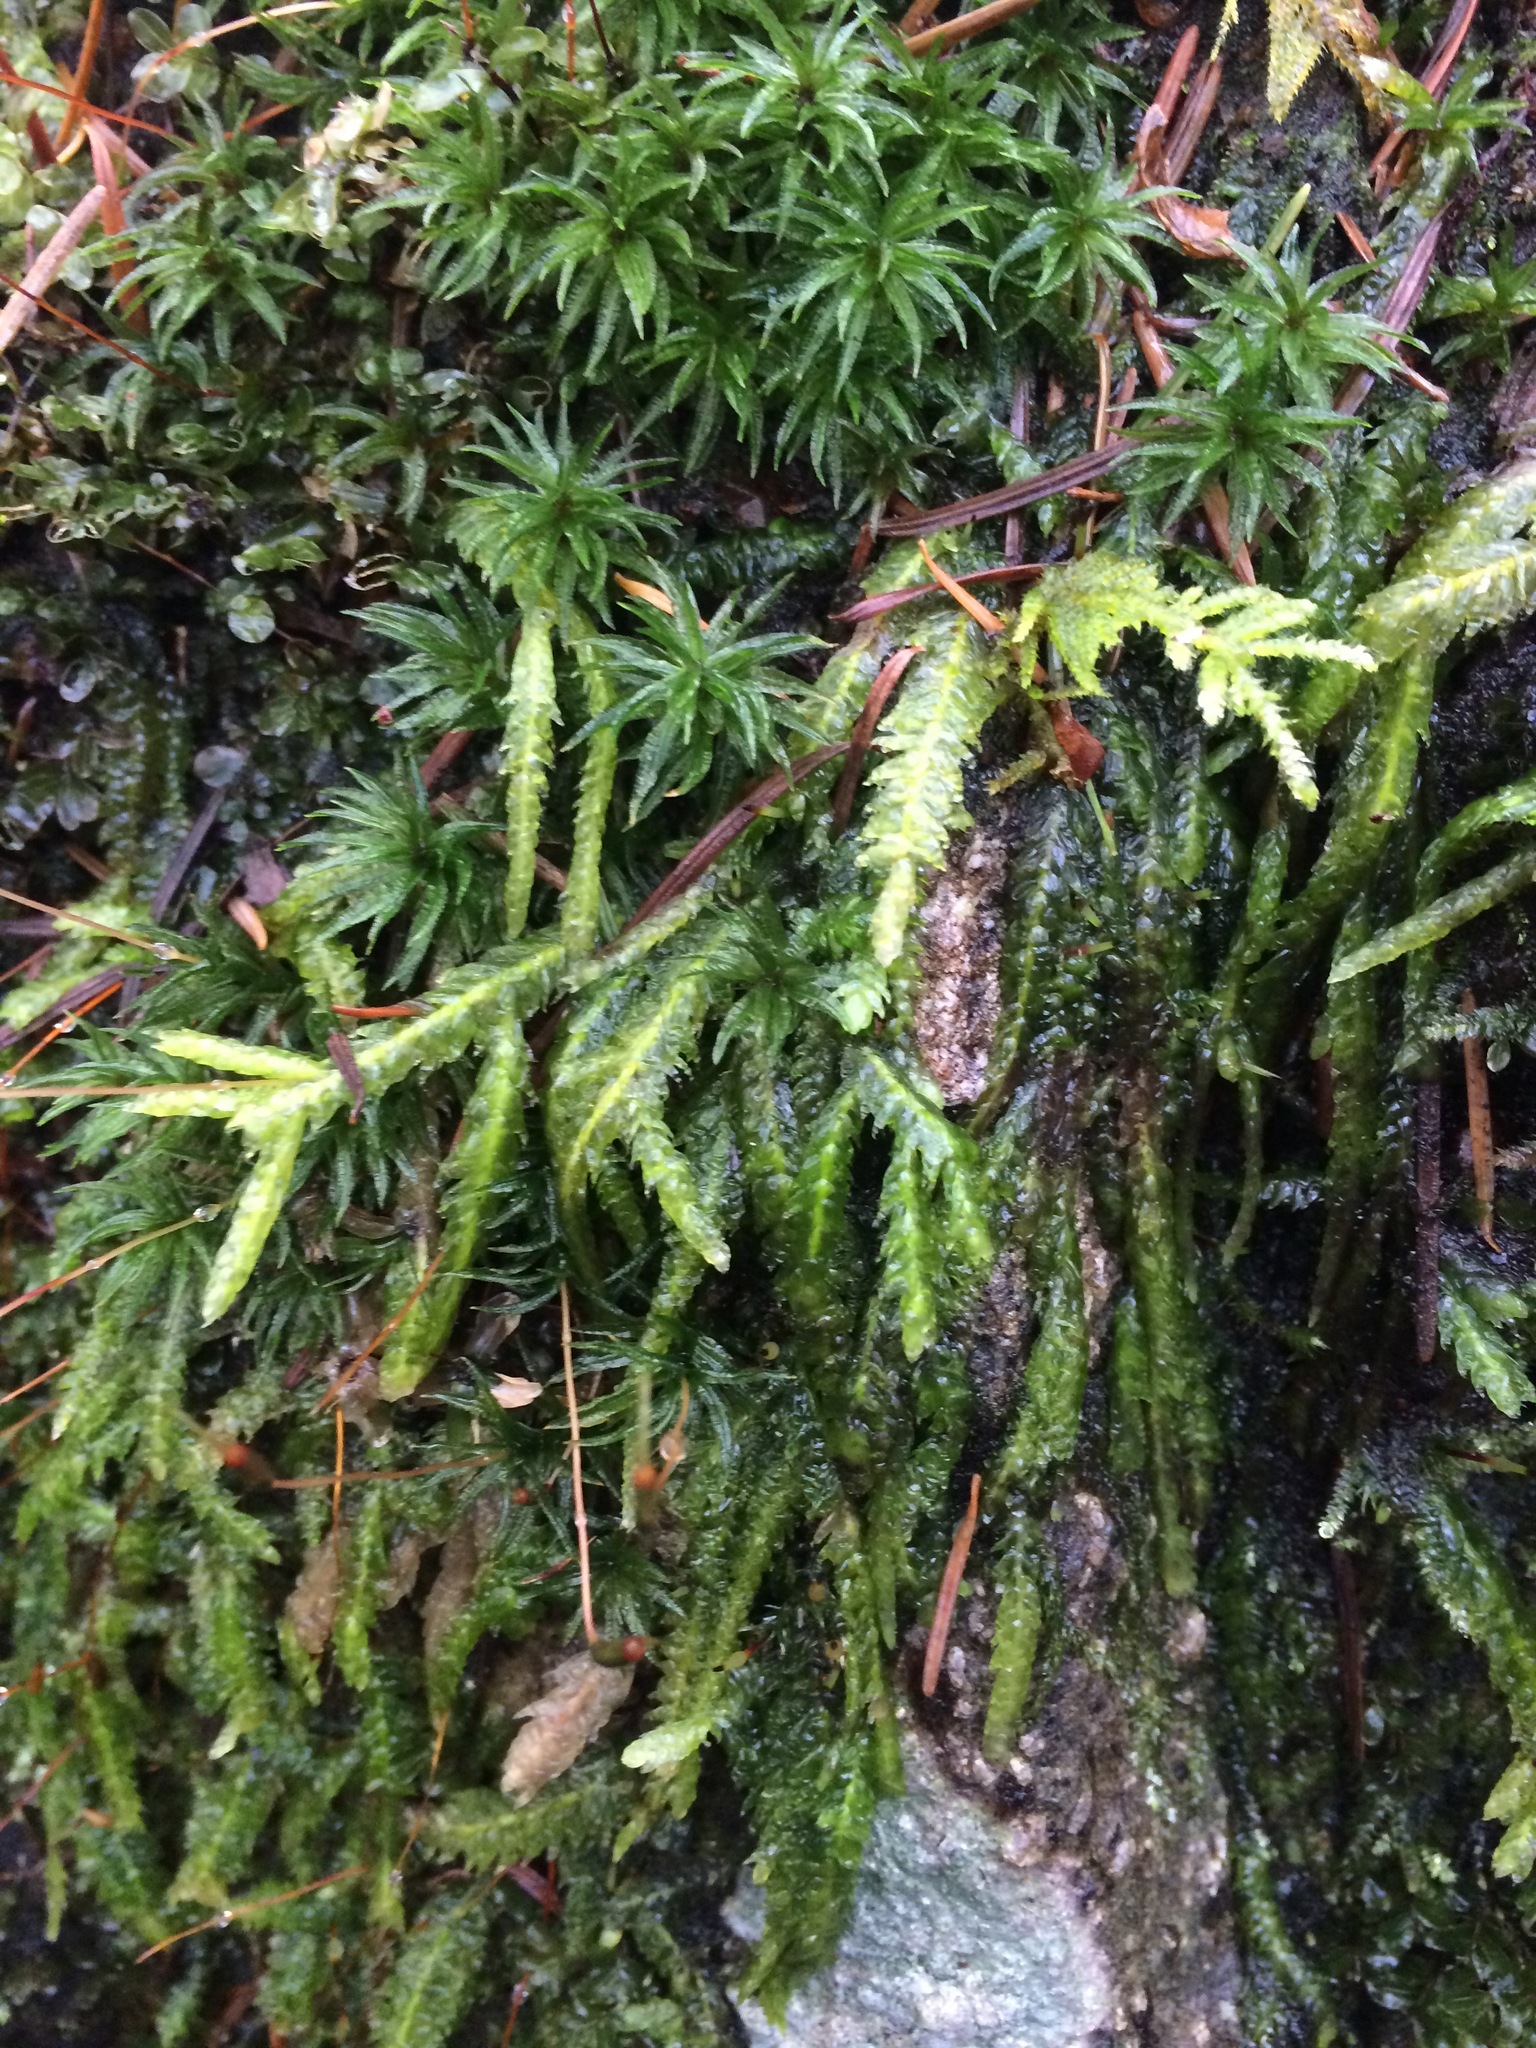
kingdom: Plantae
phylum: Bryophyta
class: Bryopsida
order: Hypnales
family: Plagiotheciaceae
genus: Plagiothecium
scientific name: Plagiothecium undulatum
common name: Waved silk-moss
